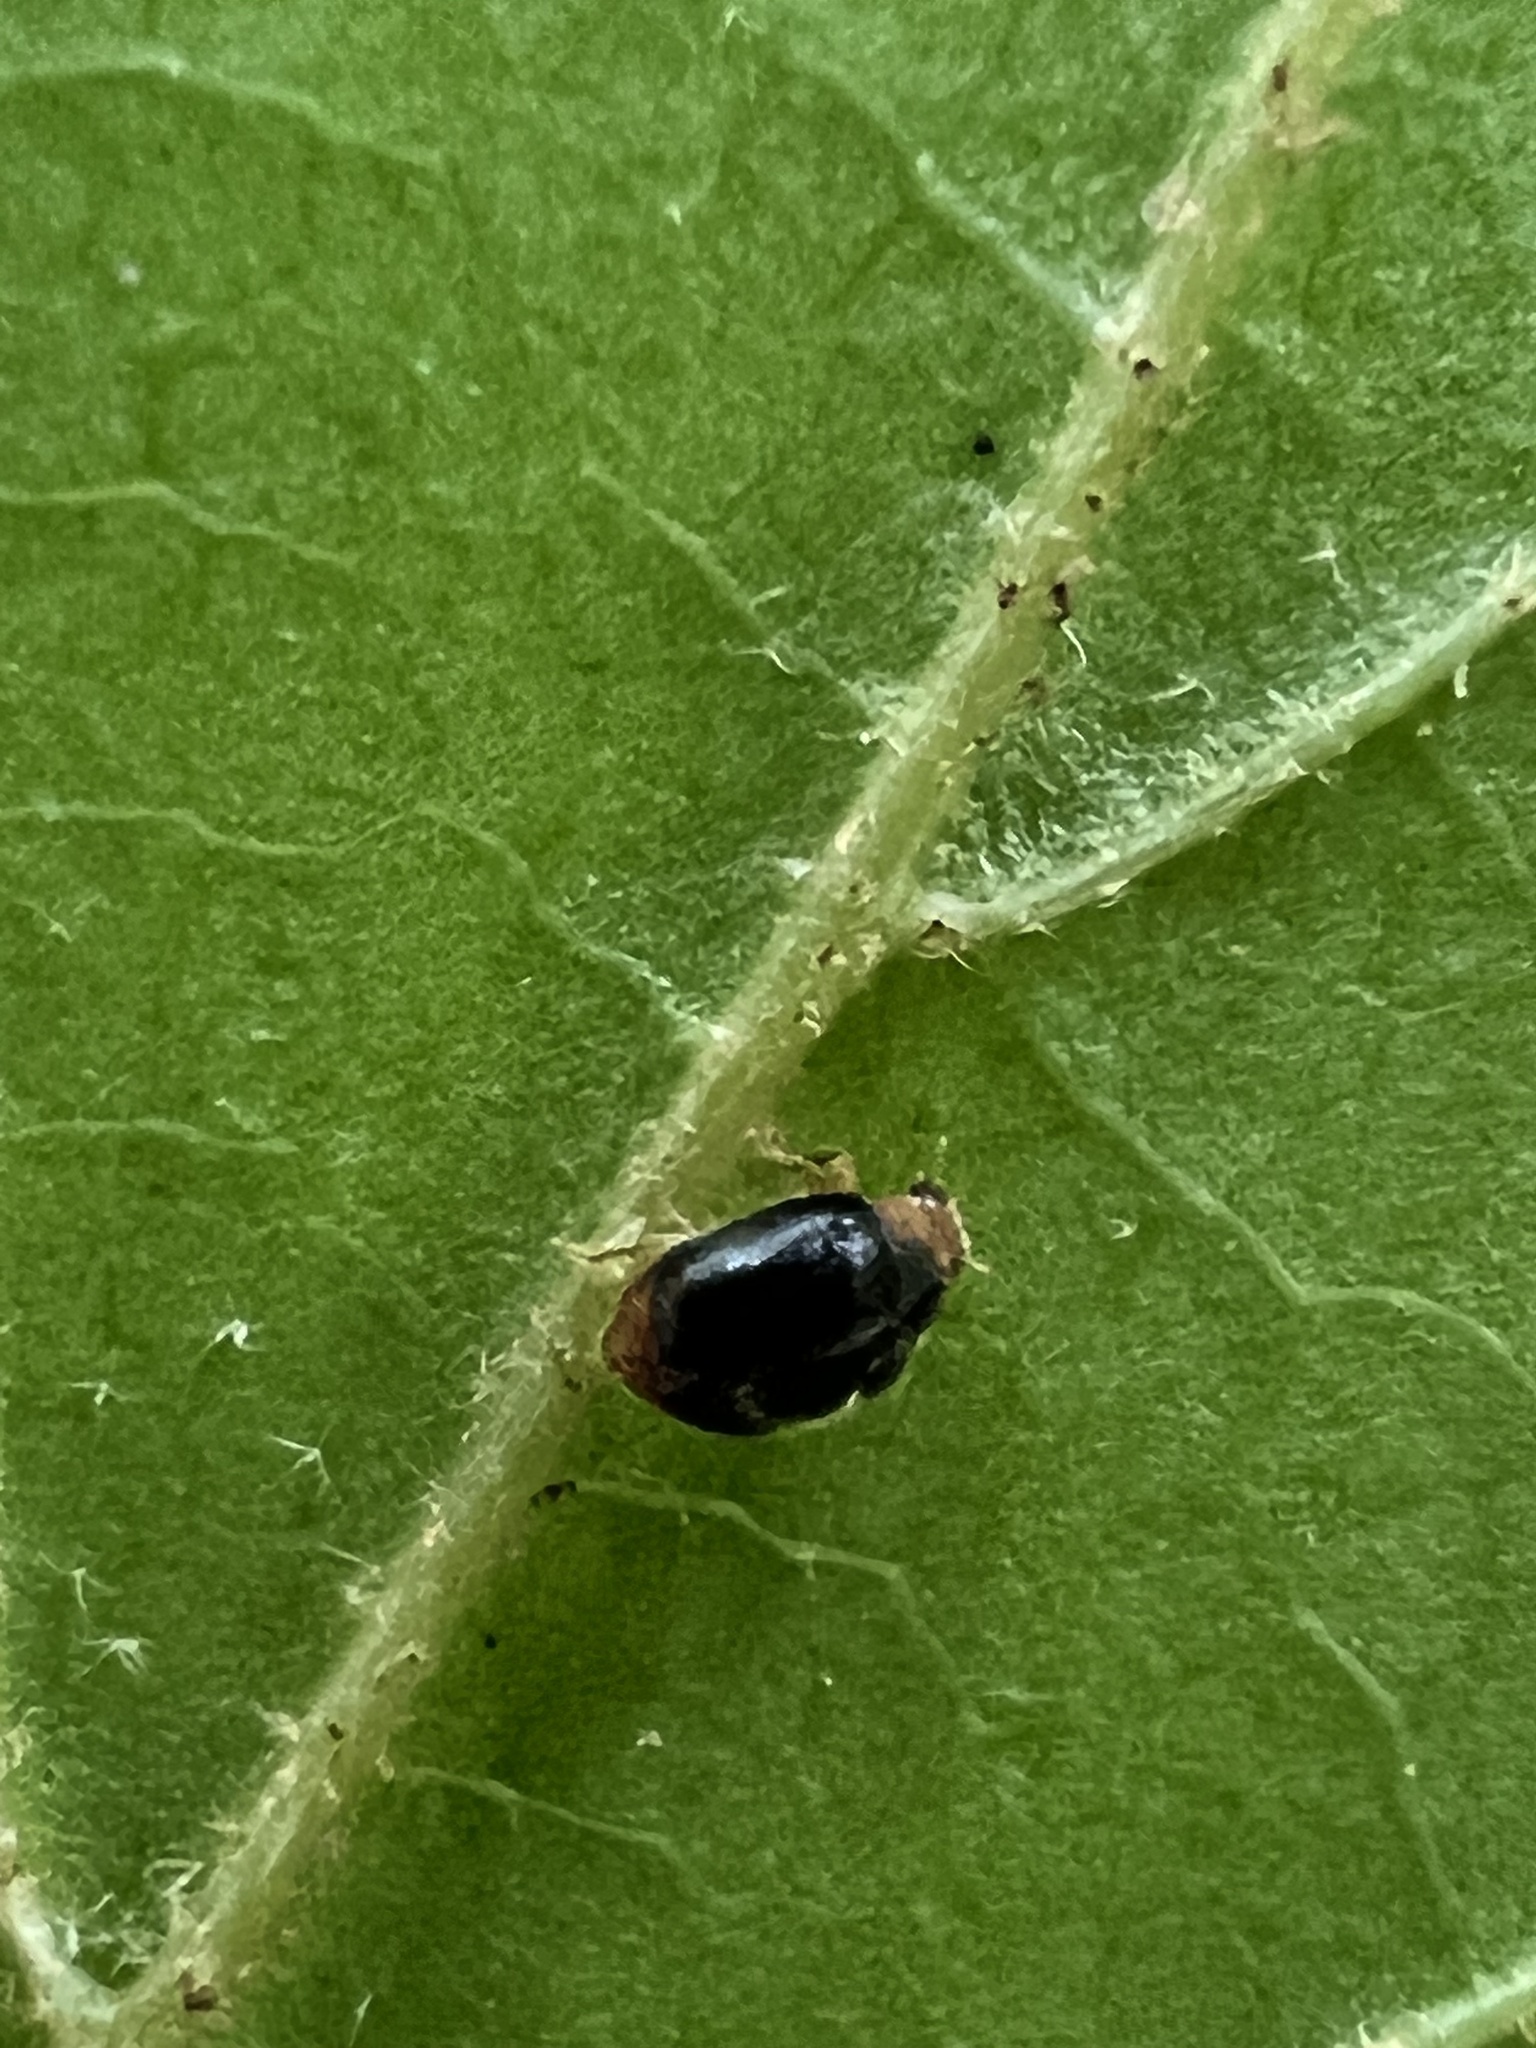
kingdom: Animalia
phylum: Arthropoda
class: Insecta
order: Coleoptera
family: Coccinellidae
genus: Cryptolaemus
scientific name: Cryptolaemus montrouzieri
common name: Mealybug destroyer
